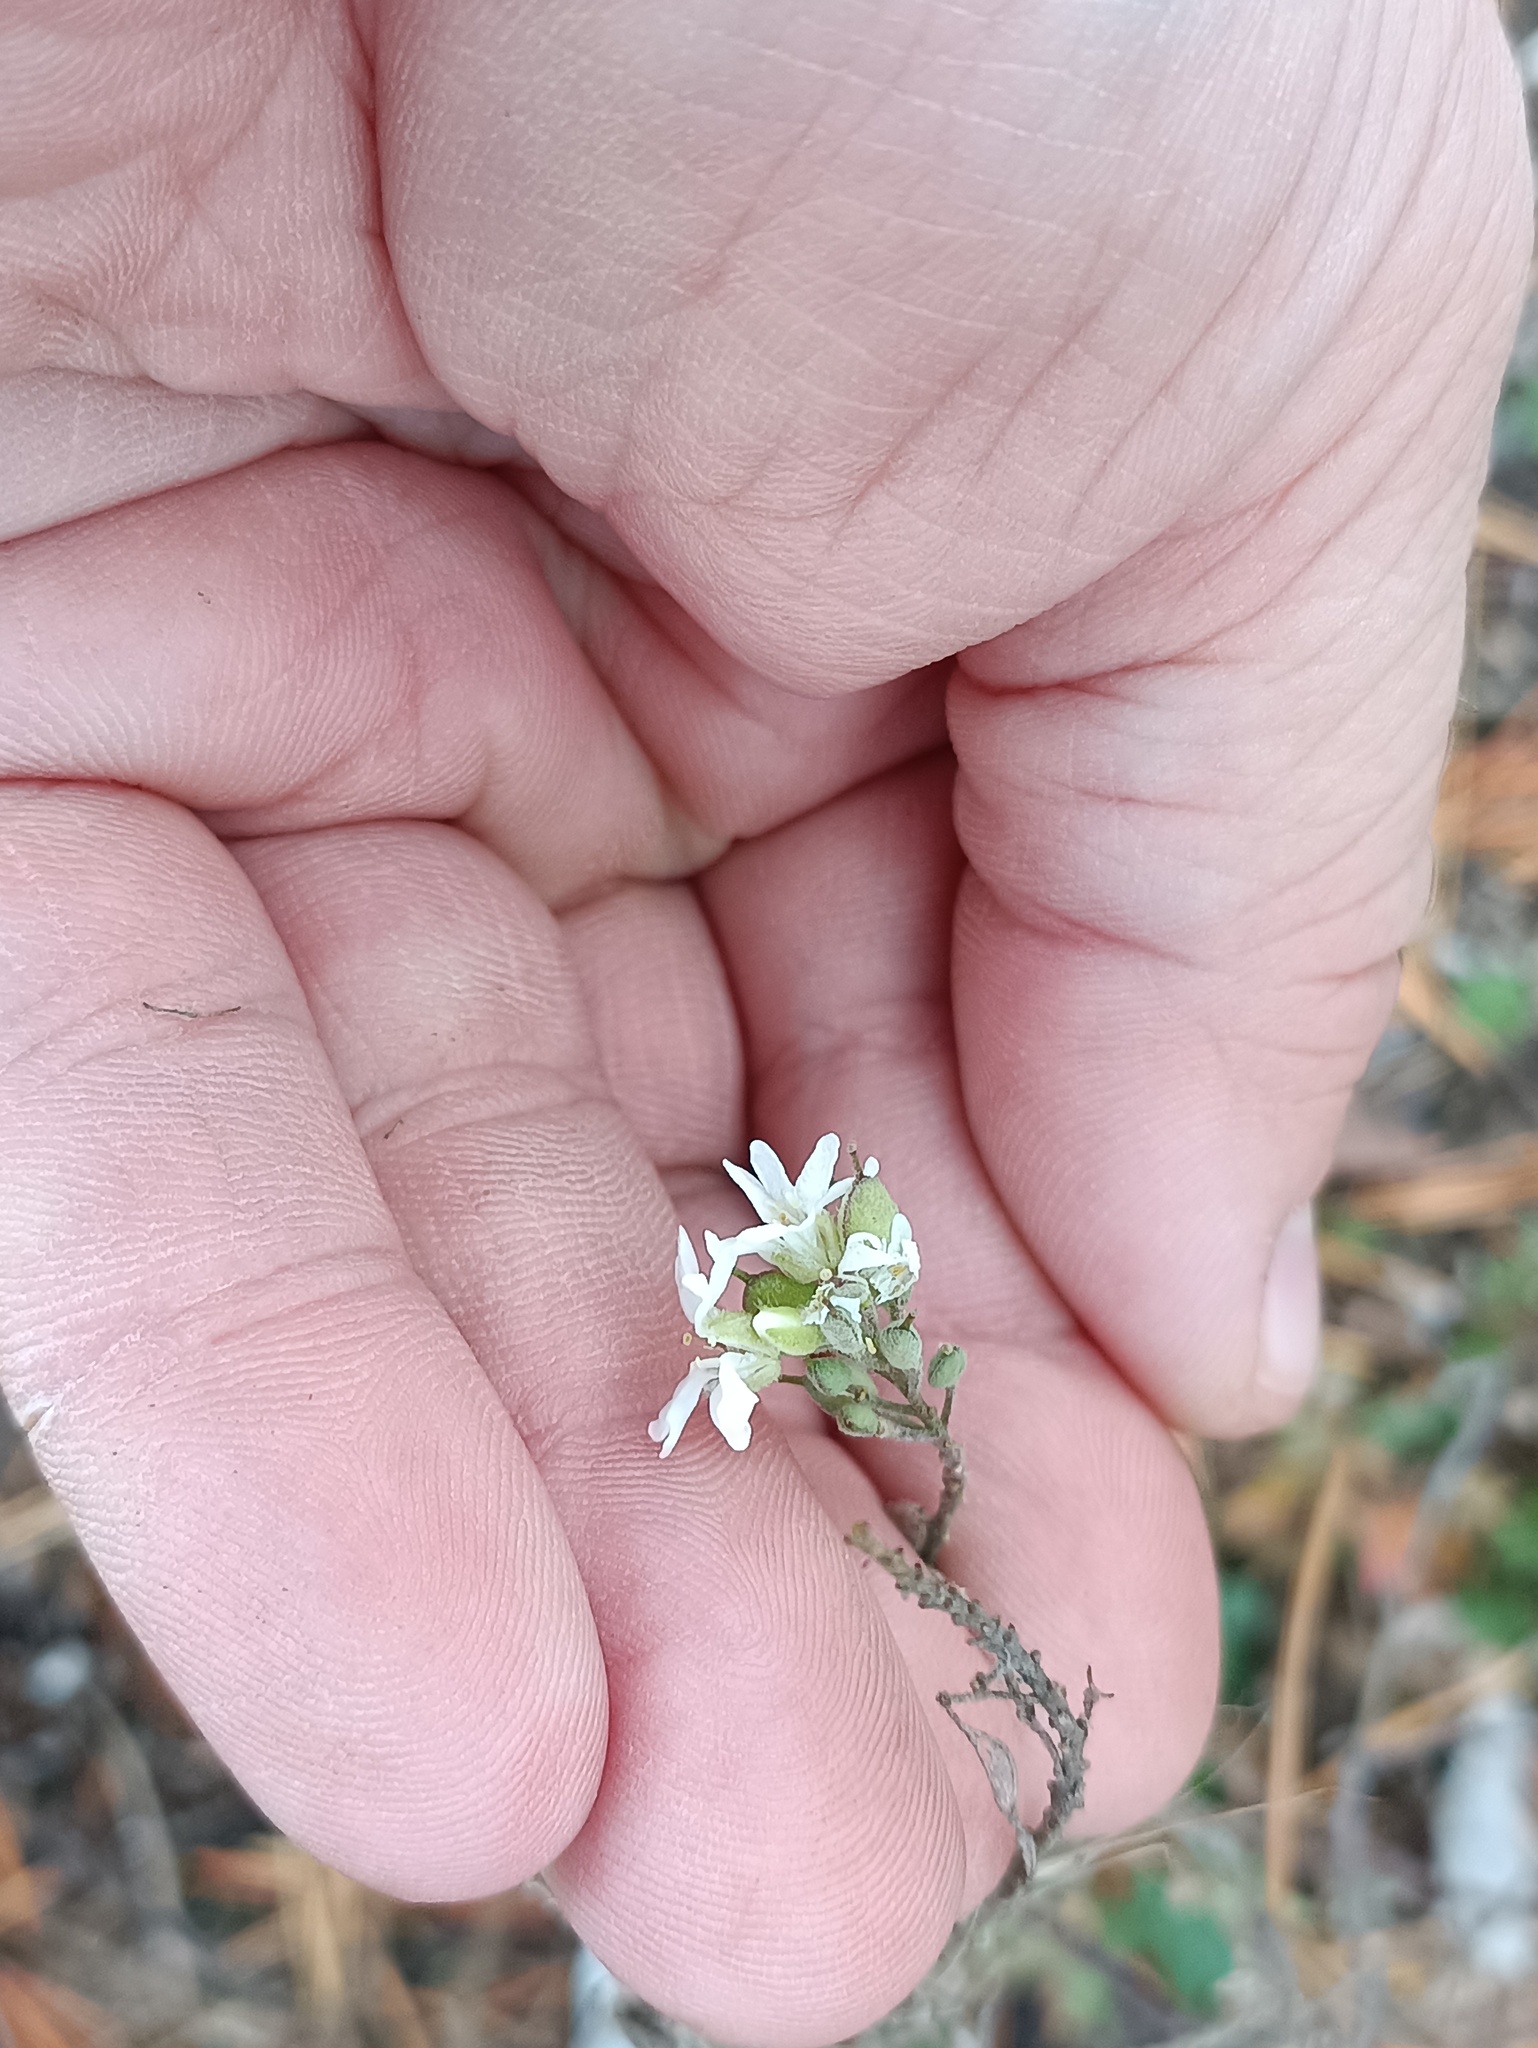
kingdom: Plantae
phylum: Tracheophyta
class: Magnoliopsida
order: Brassicales
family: Brassicaceae
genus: Berteroa
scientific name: Berteroa incana
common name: Hoary alison
